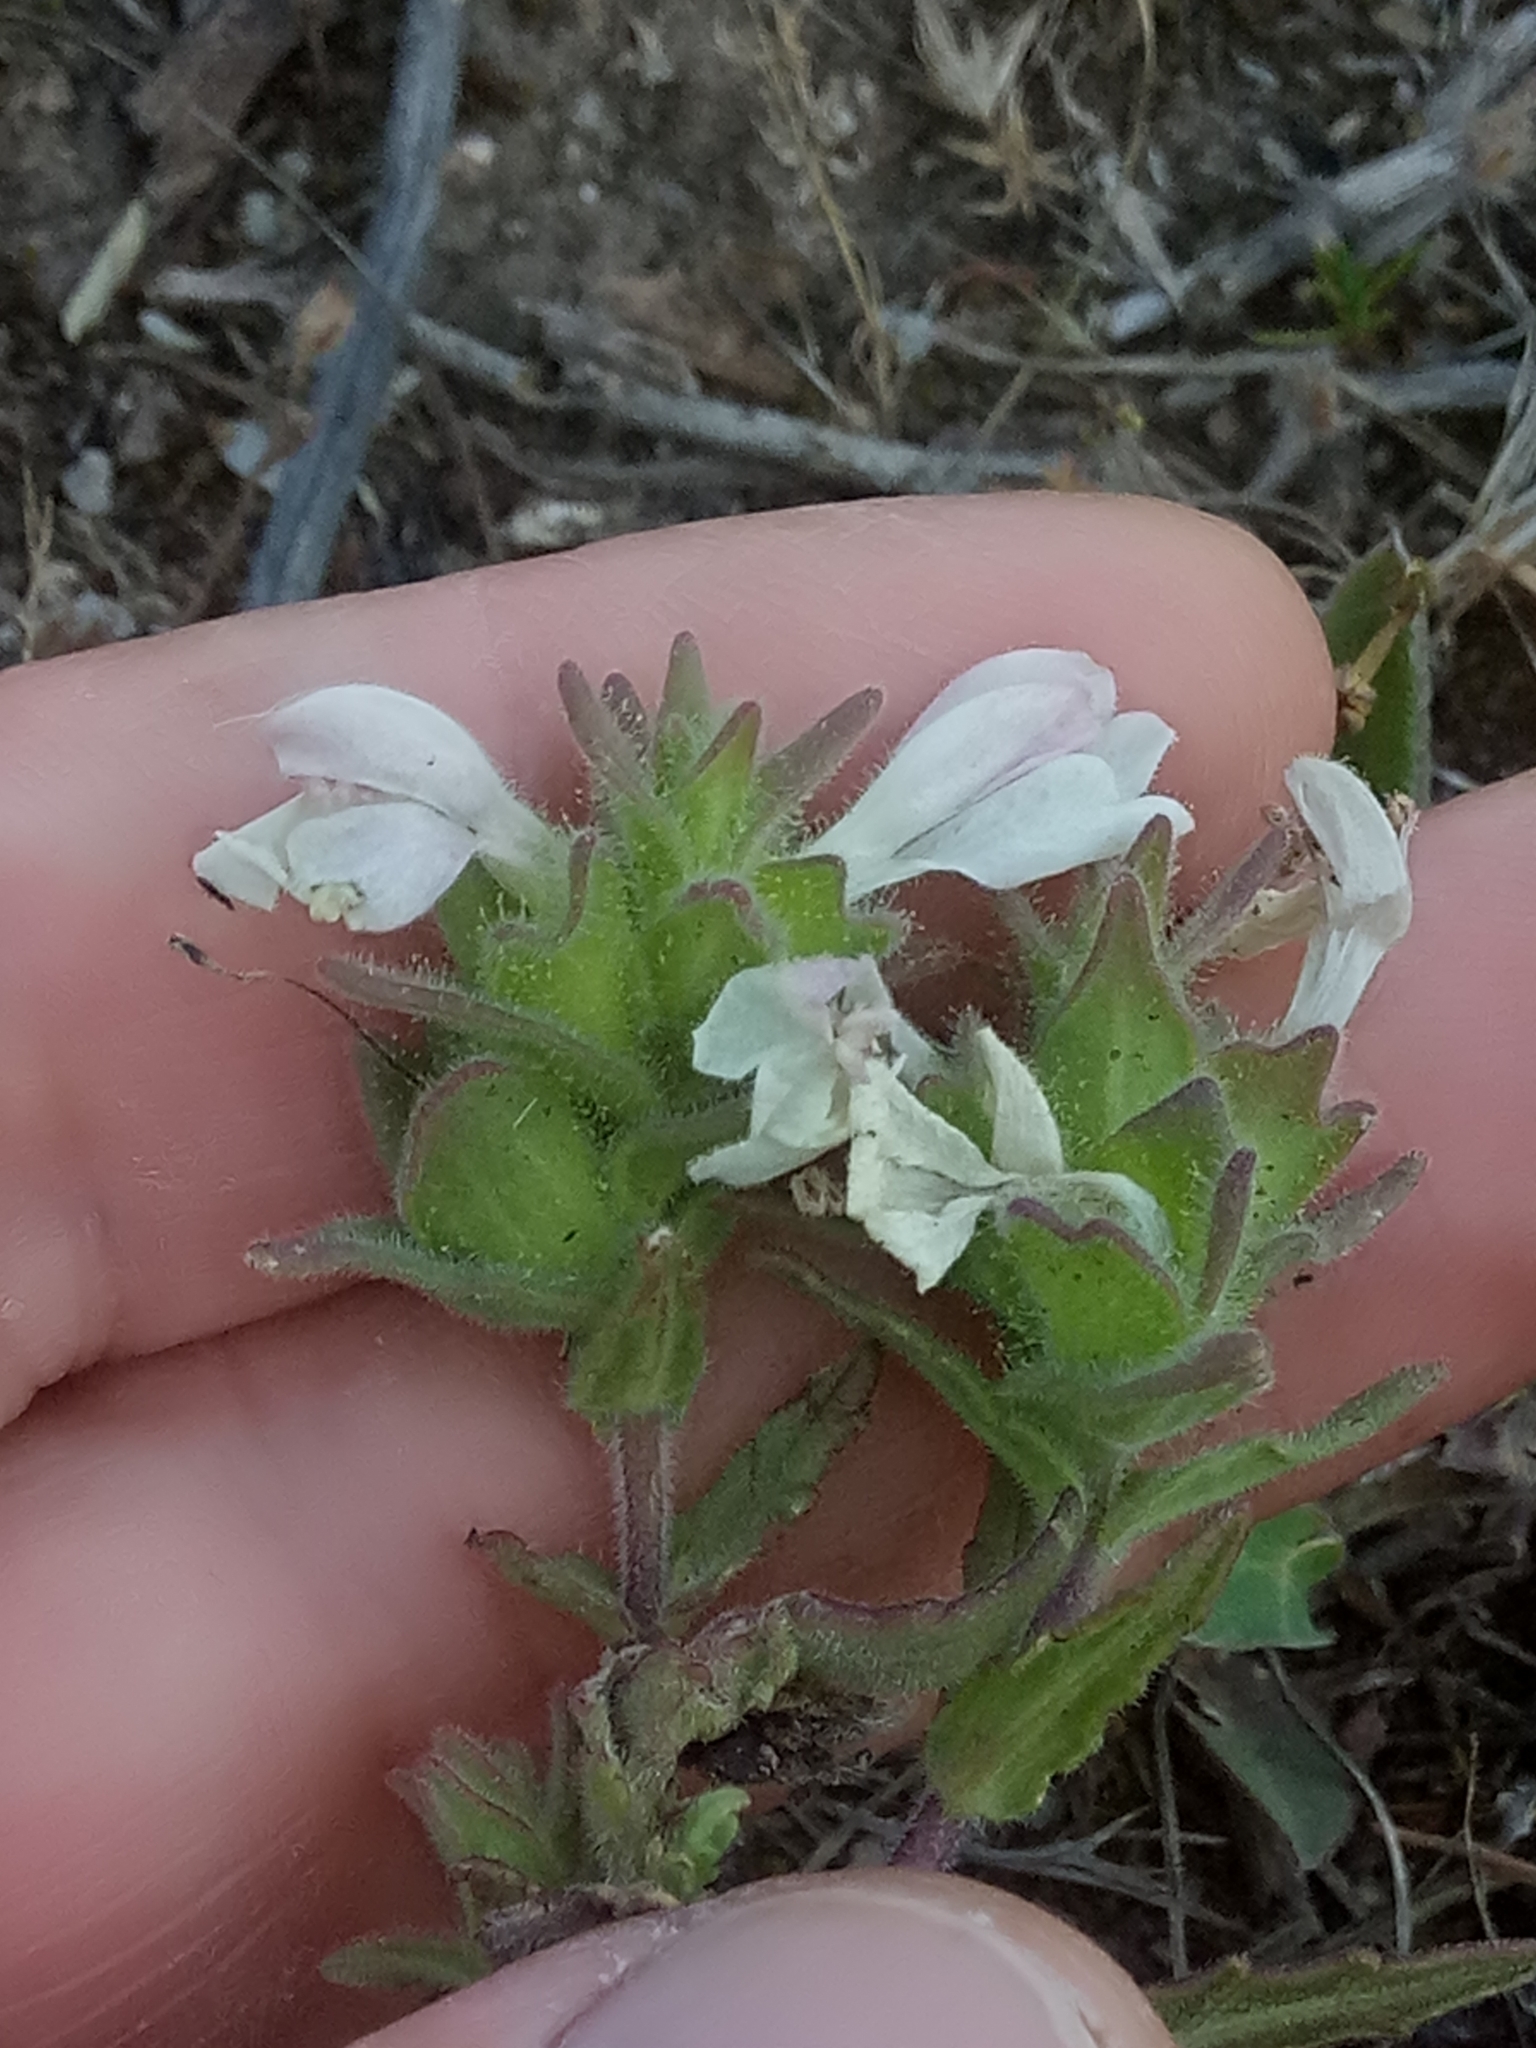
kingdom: Plantae
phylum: Tracheophyta
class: Magnoliopsida
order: Lamiales
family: Orobanchaceae
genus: Bellardia
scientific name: Bellardia trixago
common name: Mediterranean lineseed
